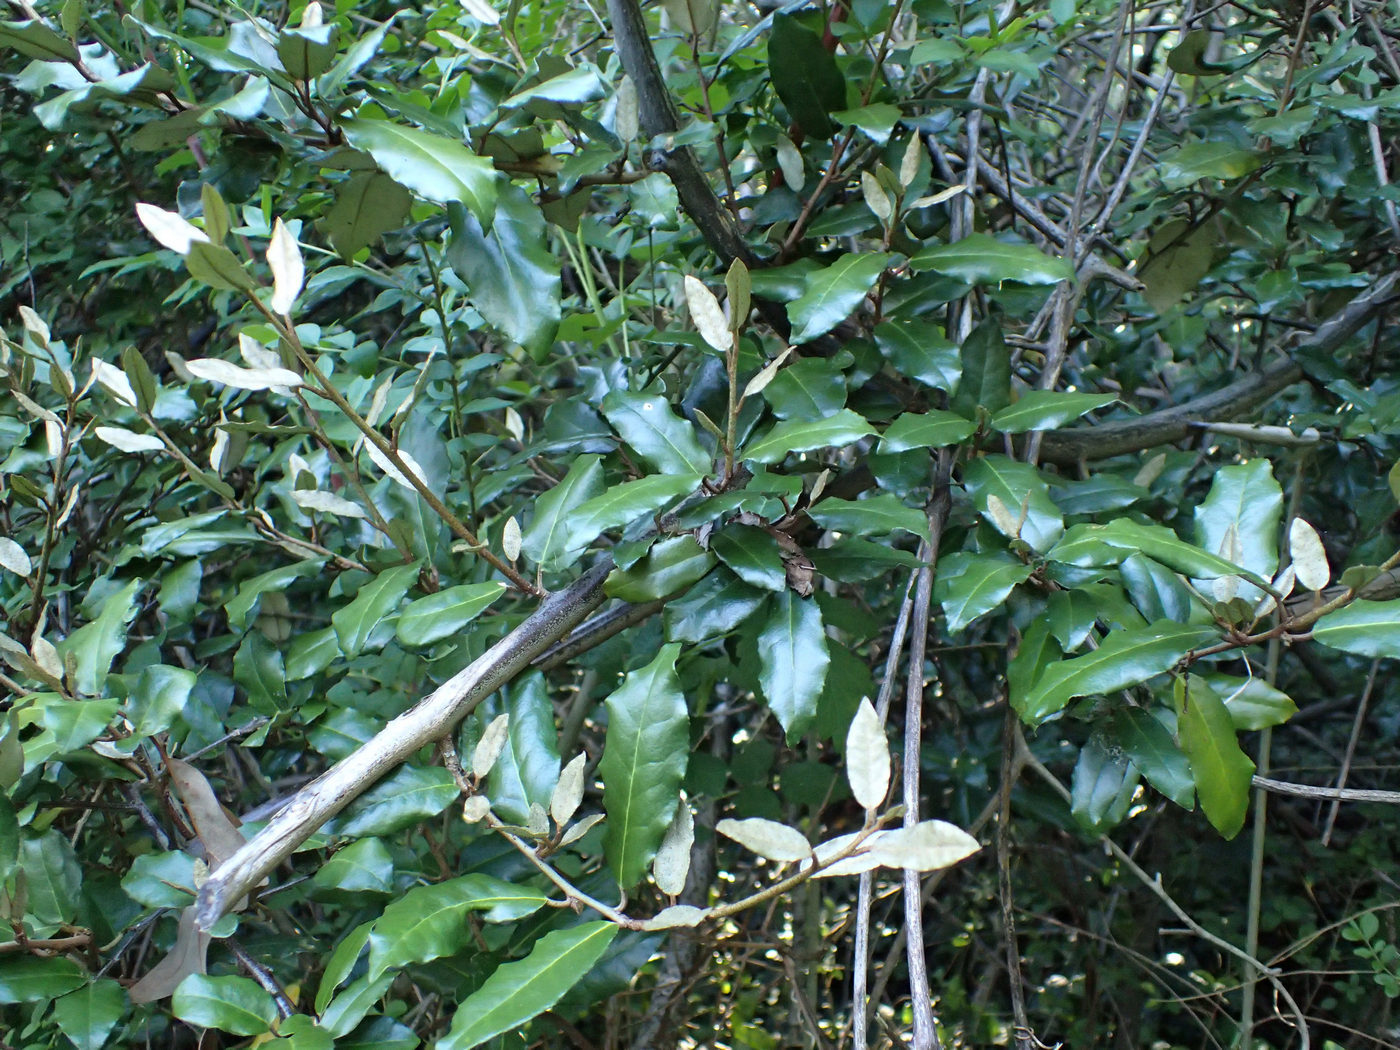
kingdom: Plantae
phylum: Tracheophyta
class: Magnoliopsida
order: Rosales
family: Elaeagnaceae
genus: Elaeagnus
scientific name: Elaeagnus pungens
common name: Spiny oleaster
